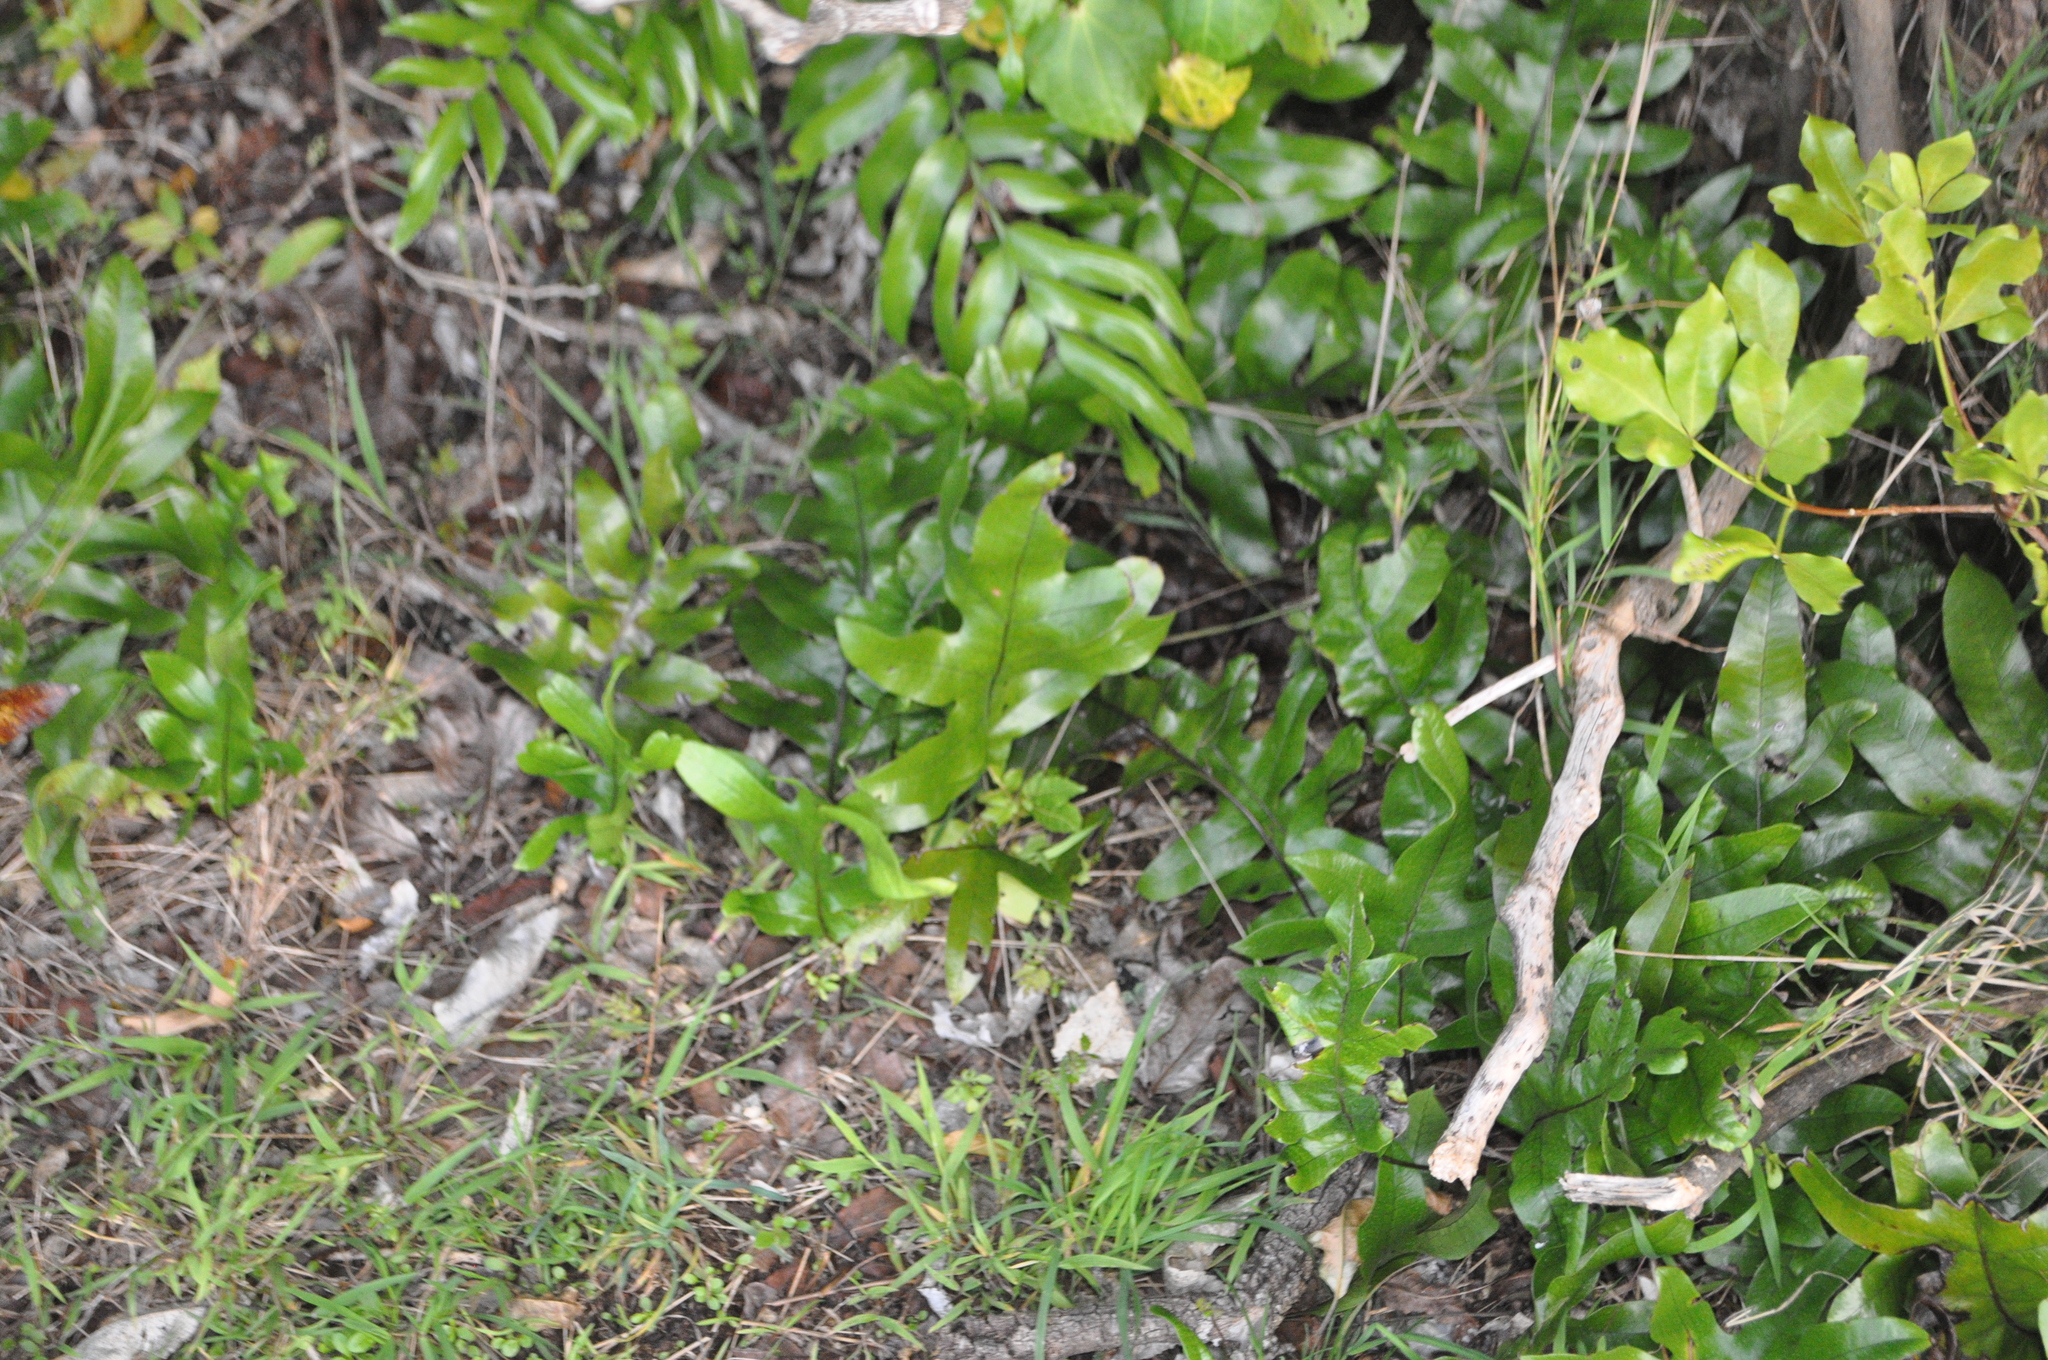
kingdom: Plantae
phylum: Tracheophyta
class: Polypodiopsida
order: Polypodiales
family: Polypodiaceae
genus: Lecanopteris
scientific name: Lecanopteris pustulata
